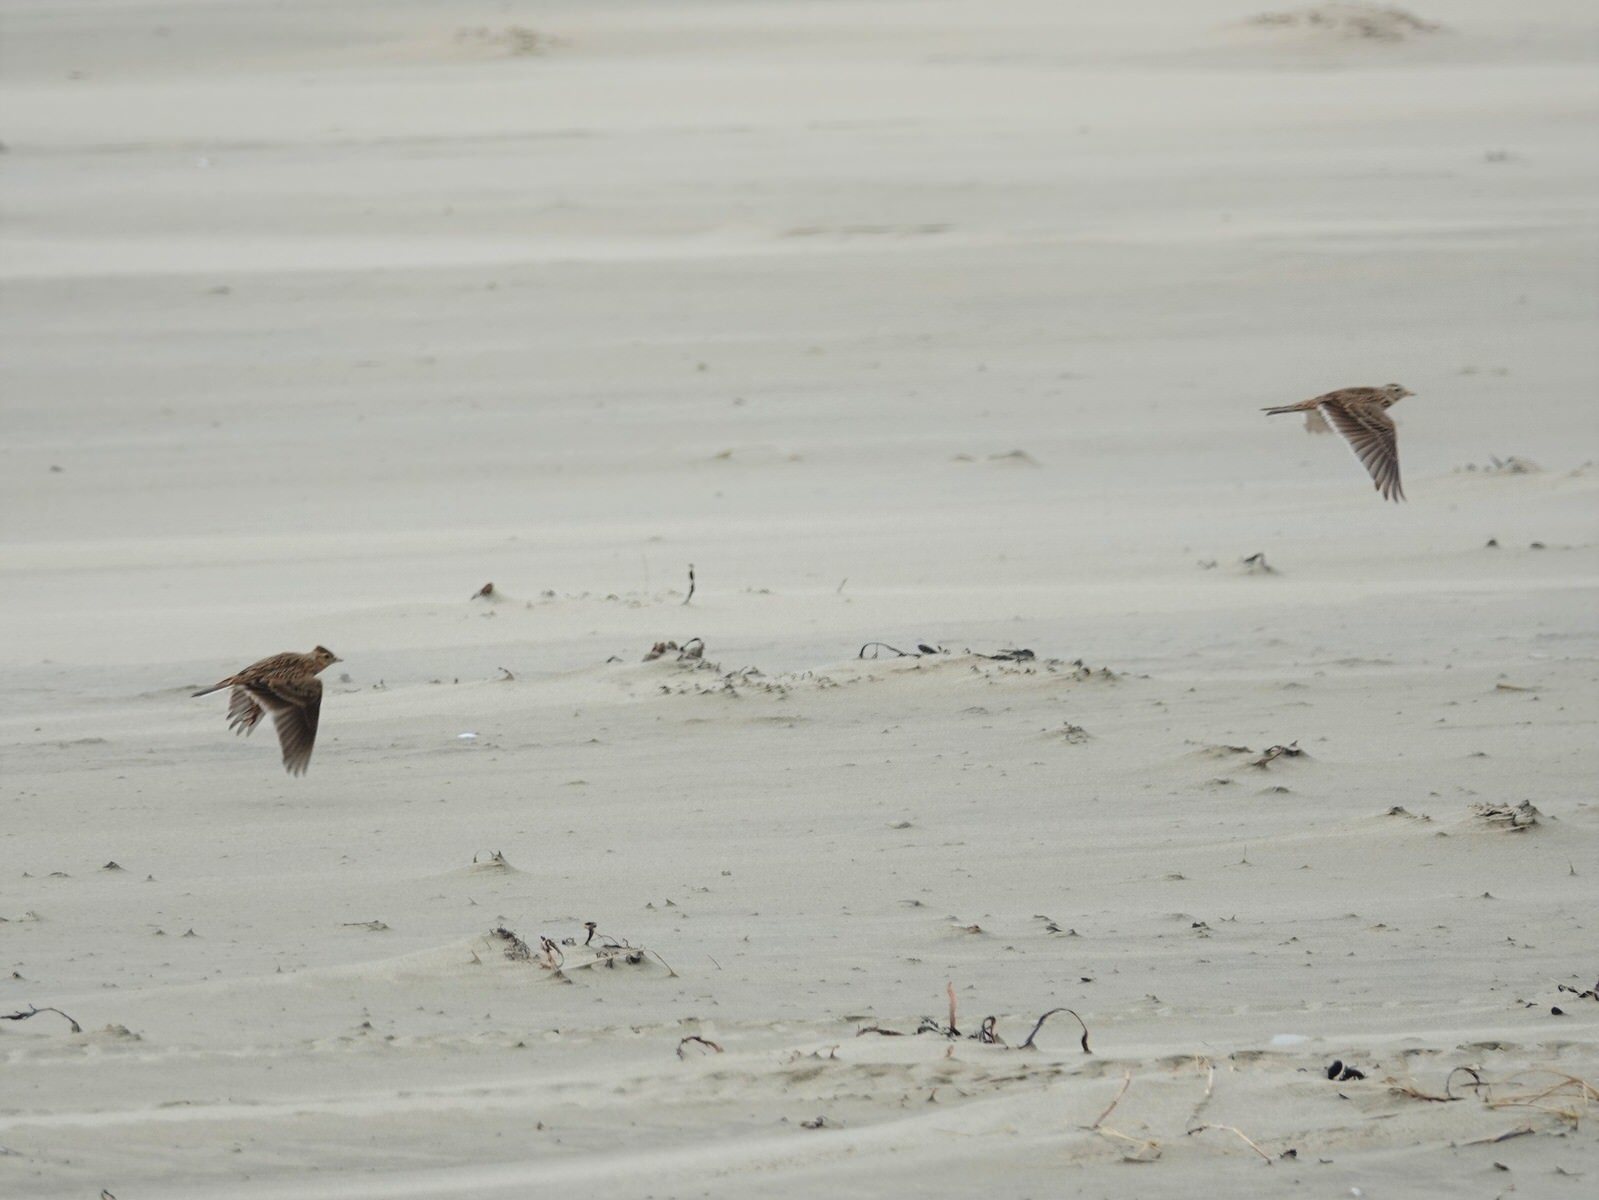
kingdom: Animalia
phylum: Chordata
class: Aves
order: Passeriformes
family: Alaudidae
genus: Alauda
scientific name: Alauda arvensis
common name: Eurasian skylark
